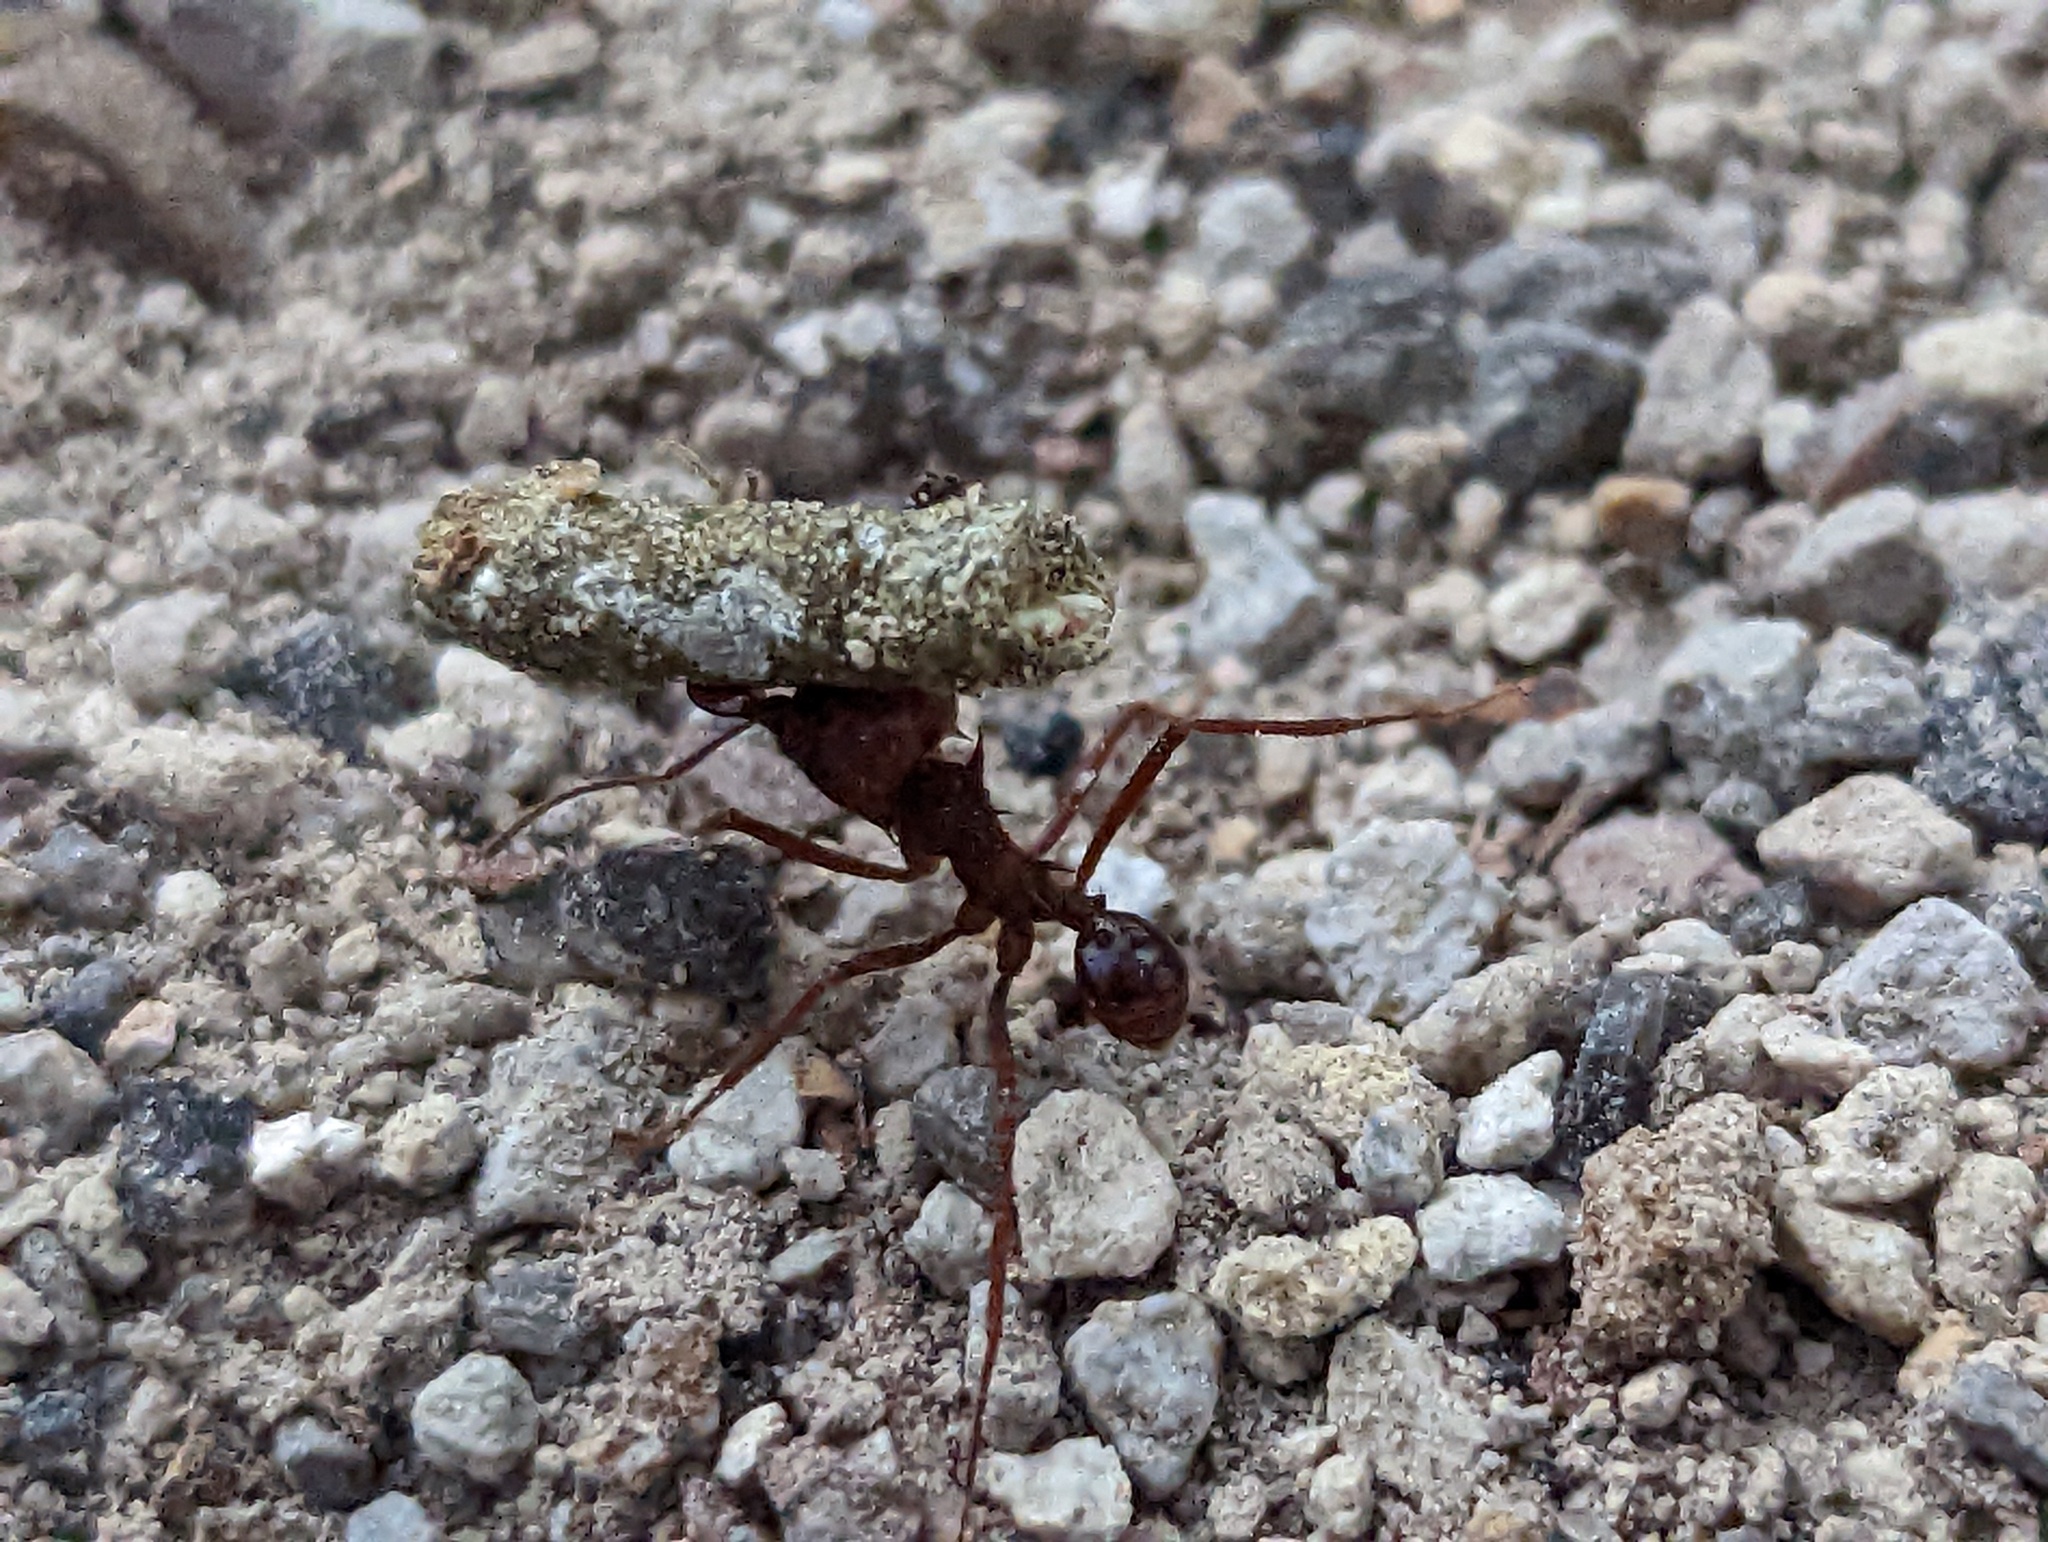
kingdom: Animalia
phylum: Arthropoda
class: Insecta
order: Hymenoptera
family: Formicidae
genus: Atta
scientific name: Atta mexicana
